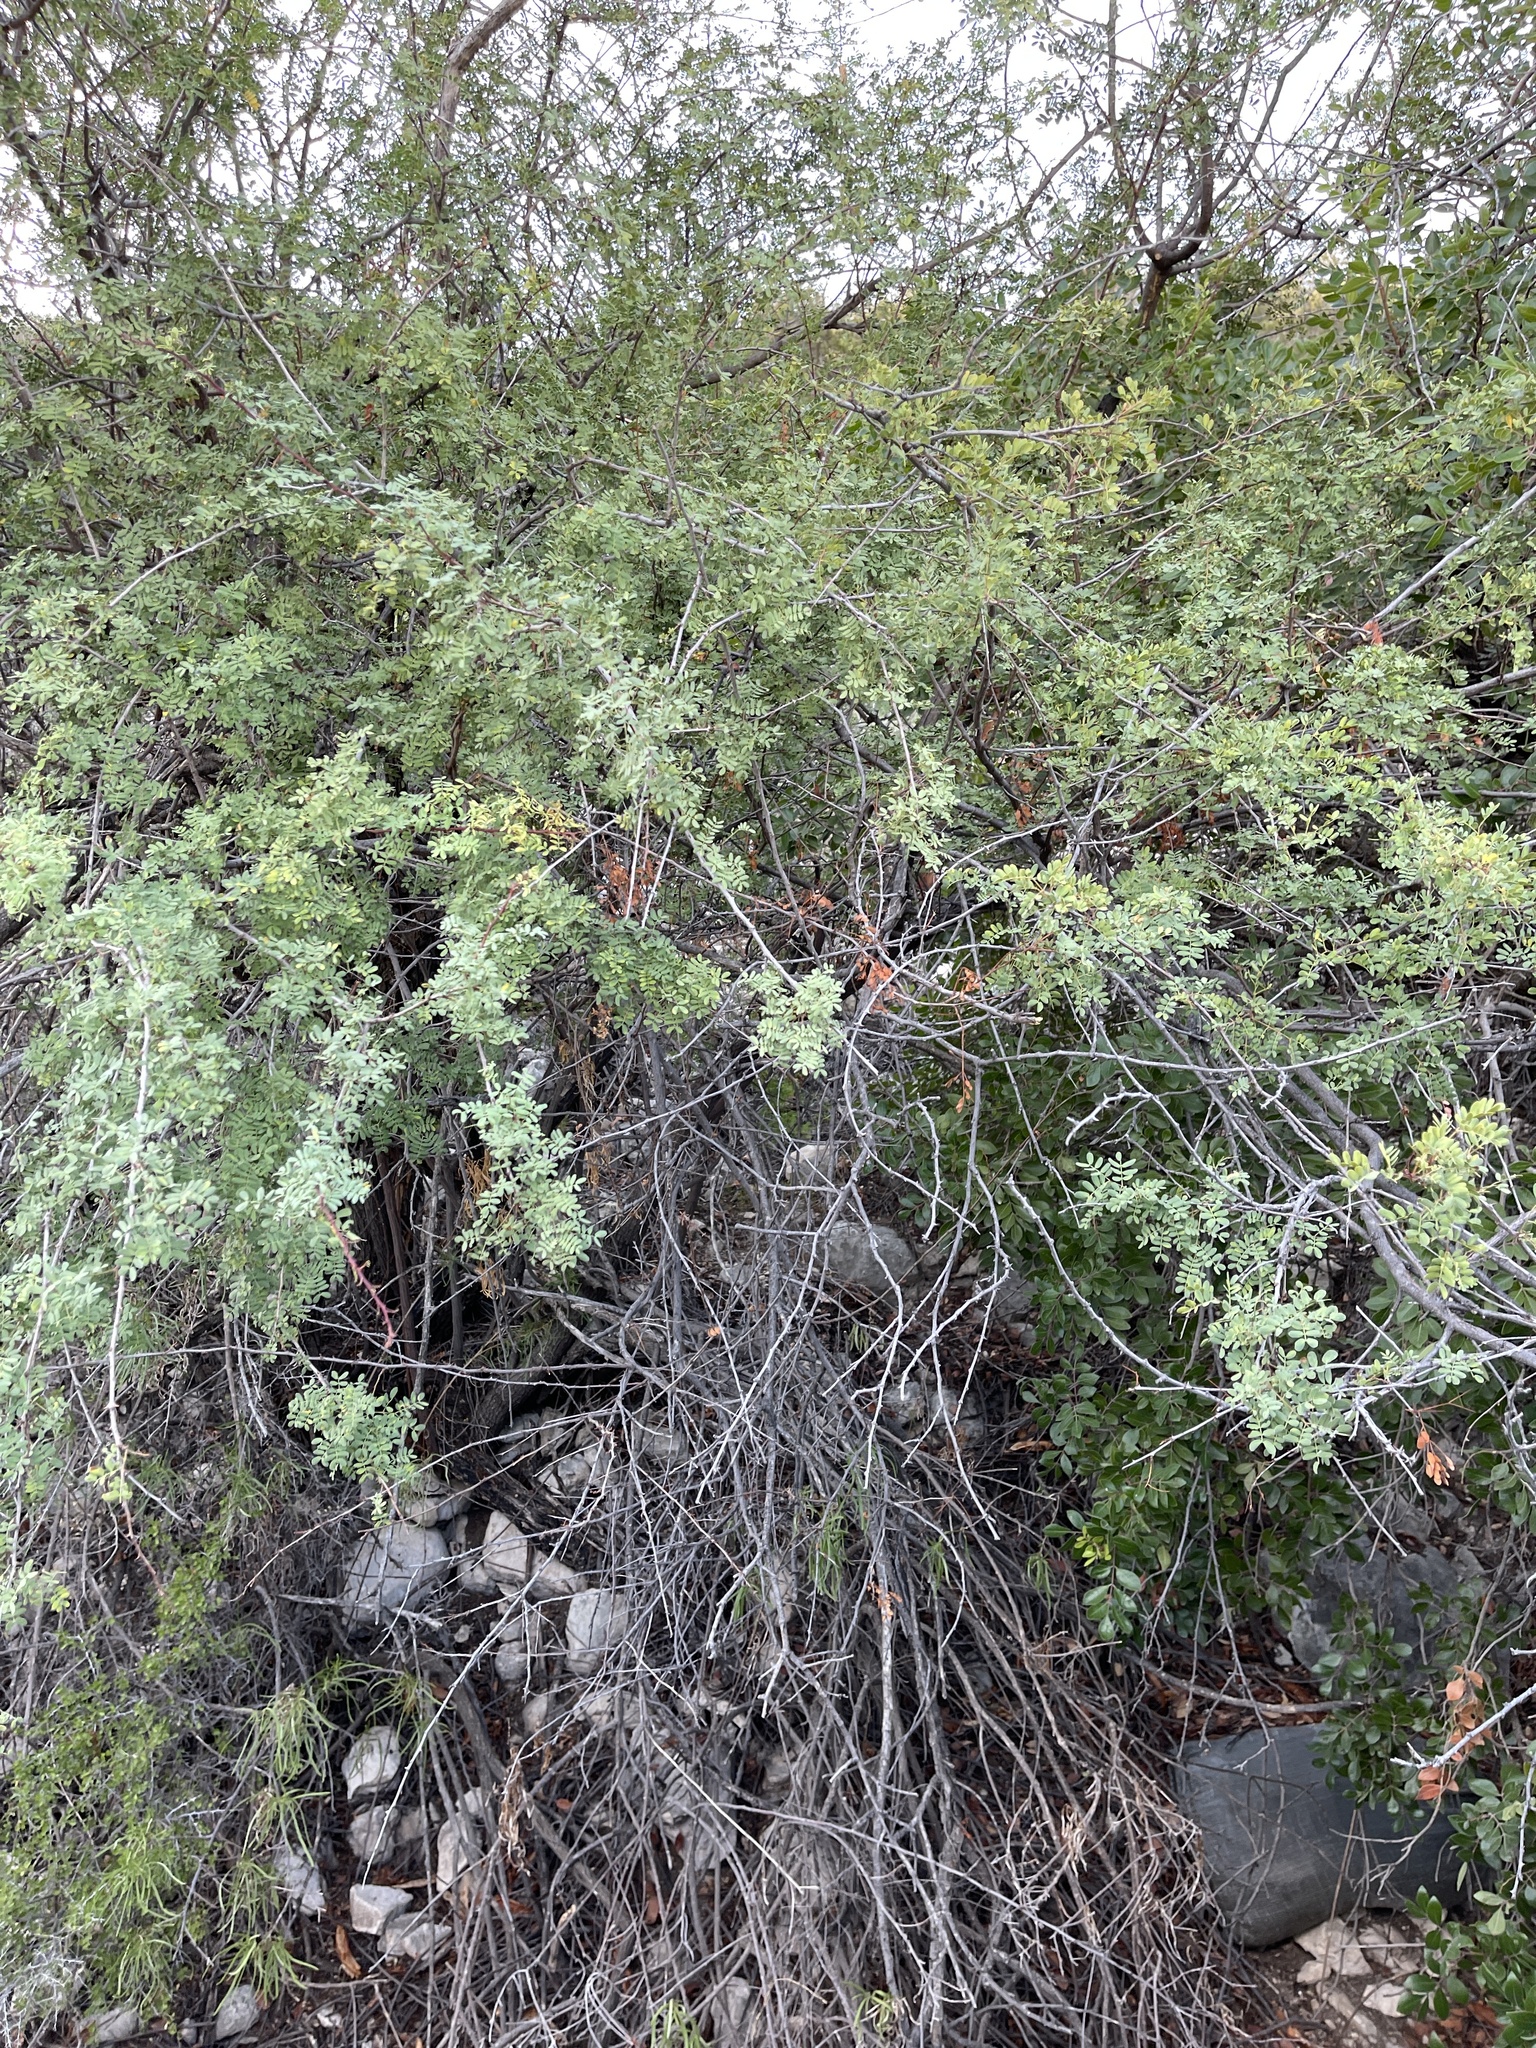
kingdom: Plantae
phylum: Tracheophyta
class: Magnoliopsida
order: Fabales
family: Fabaceae
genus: Senegalia
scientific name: Senegalia roemeriana
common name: Roemer's acacia
